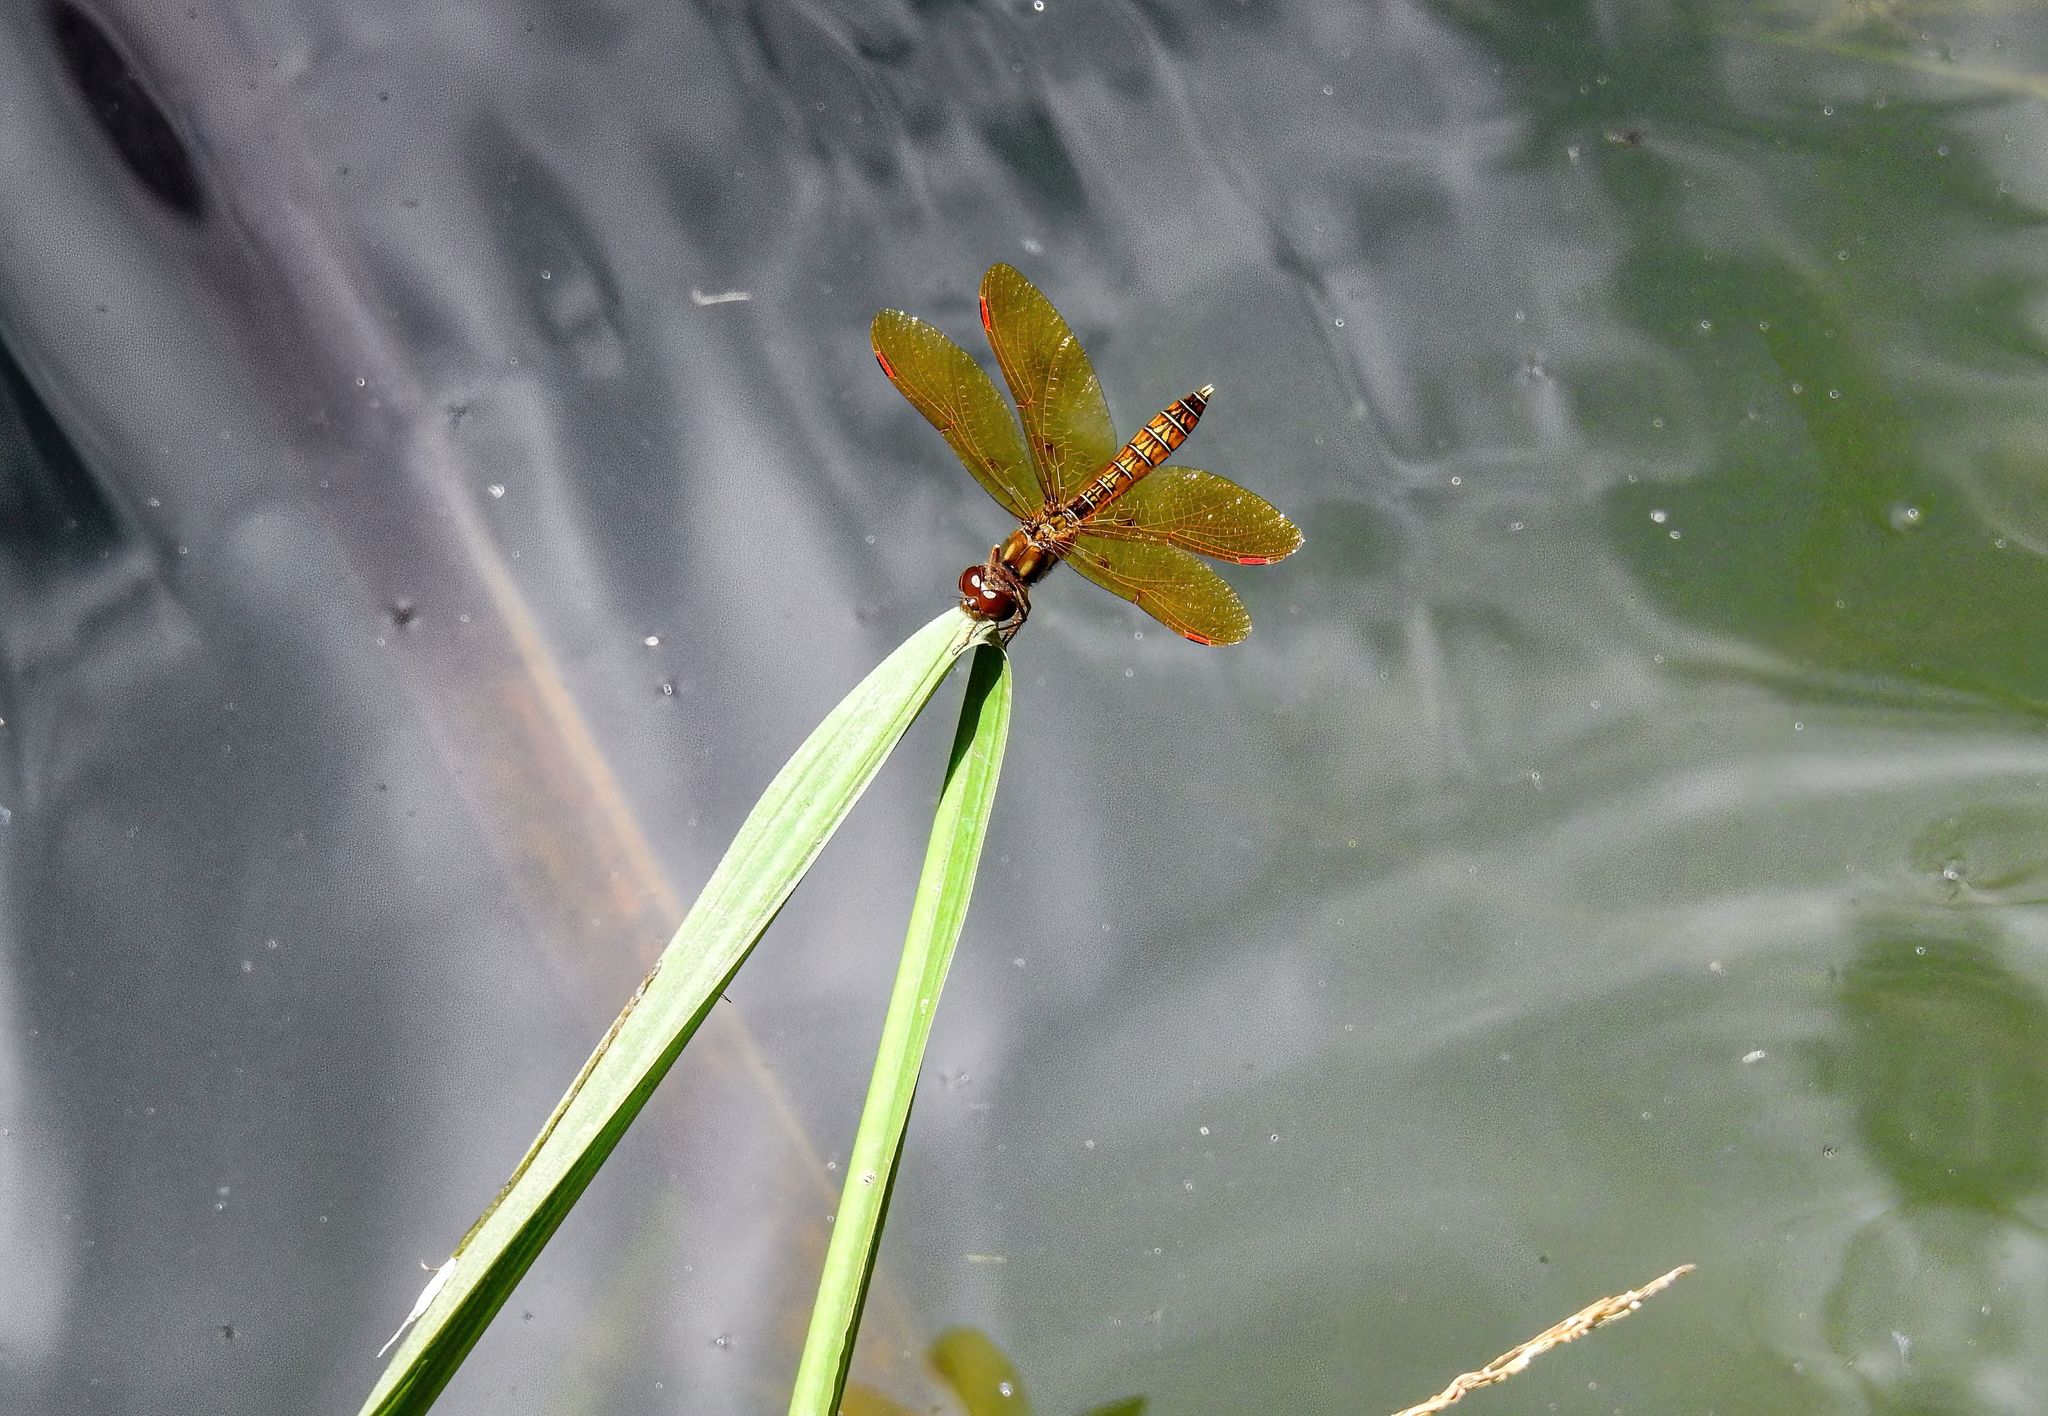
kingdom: Animalia
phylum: Arthropoda
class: Insecta
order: Odonata
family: Libellulidae
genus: Perithemis
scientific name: Perithemis tenera
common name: Eastern amberwing
